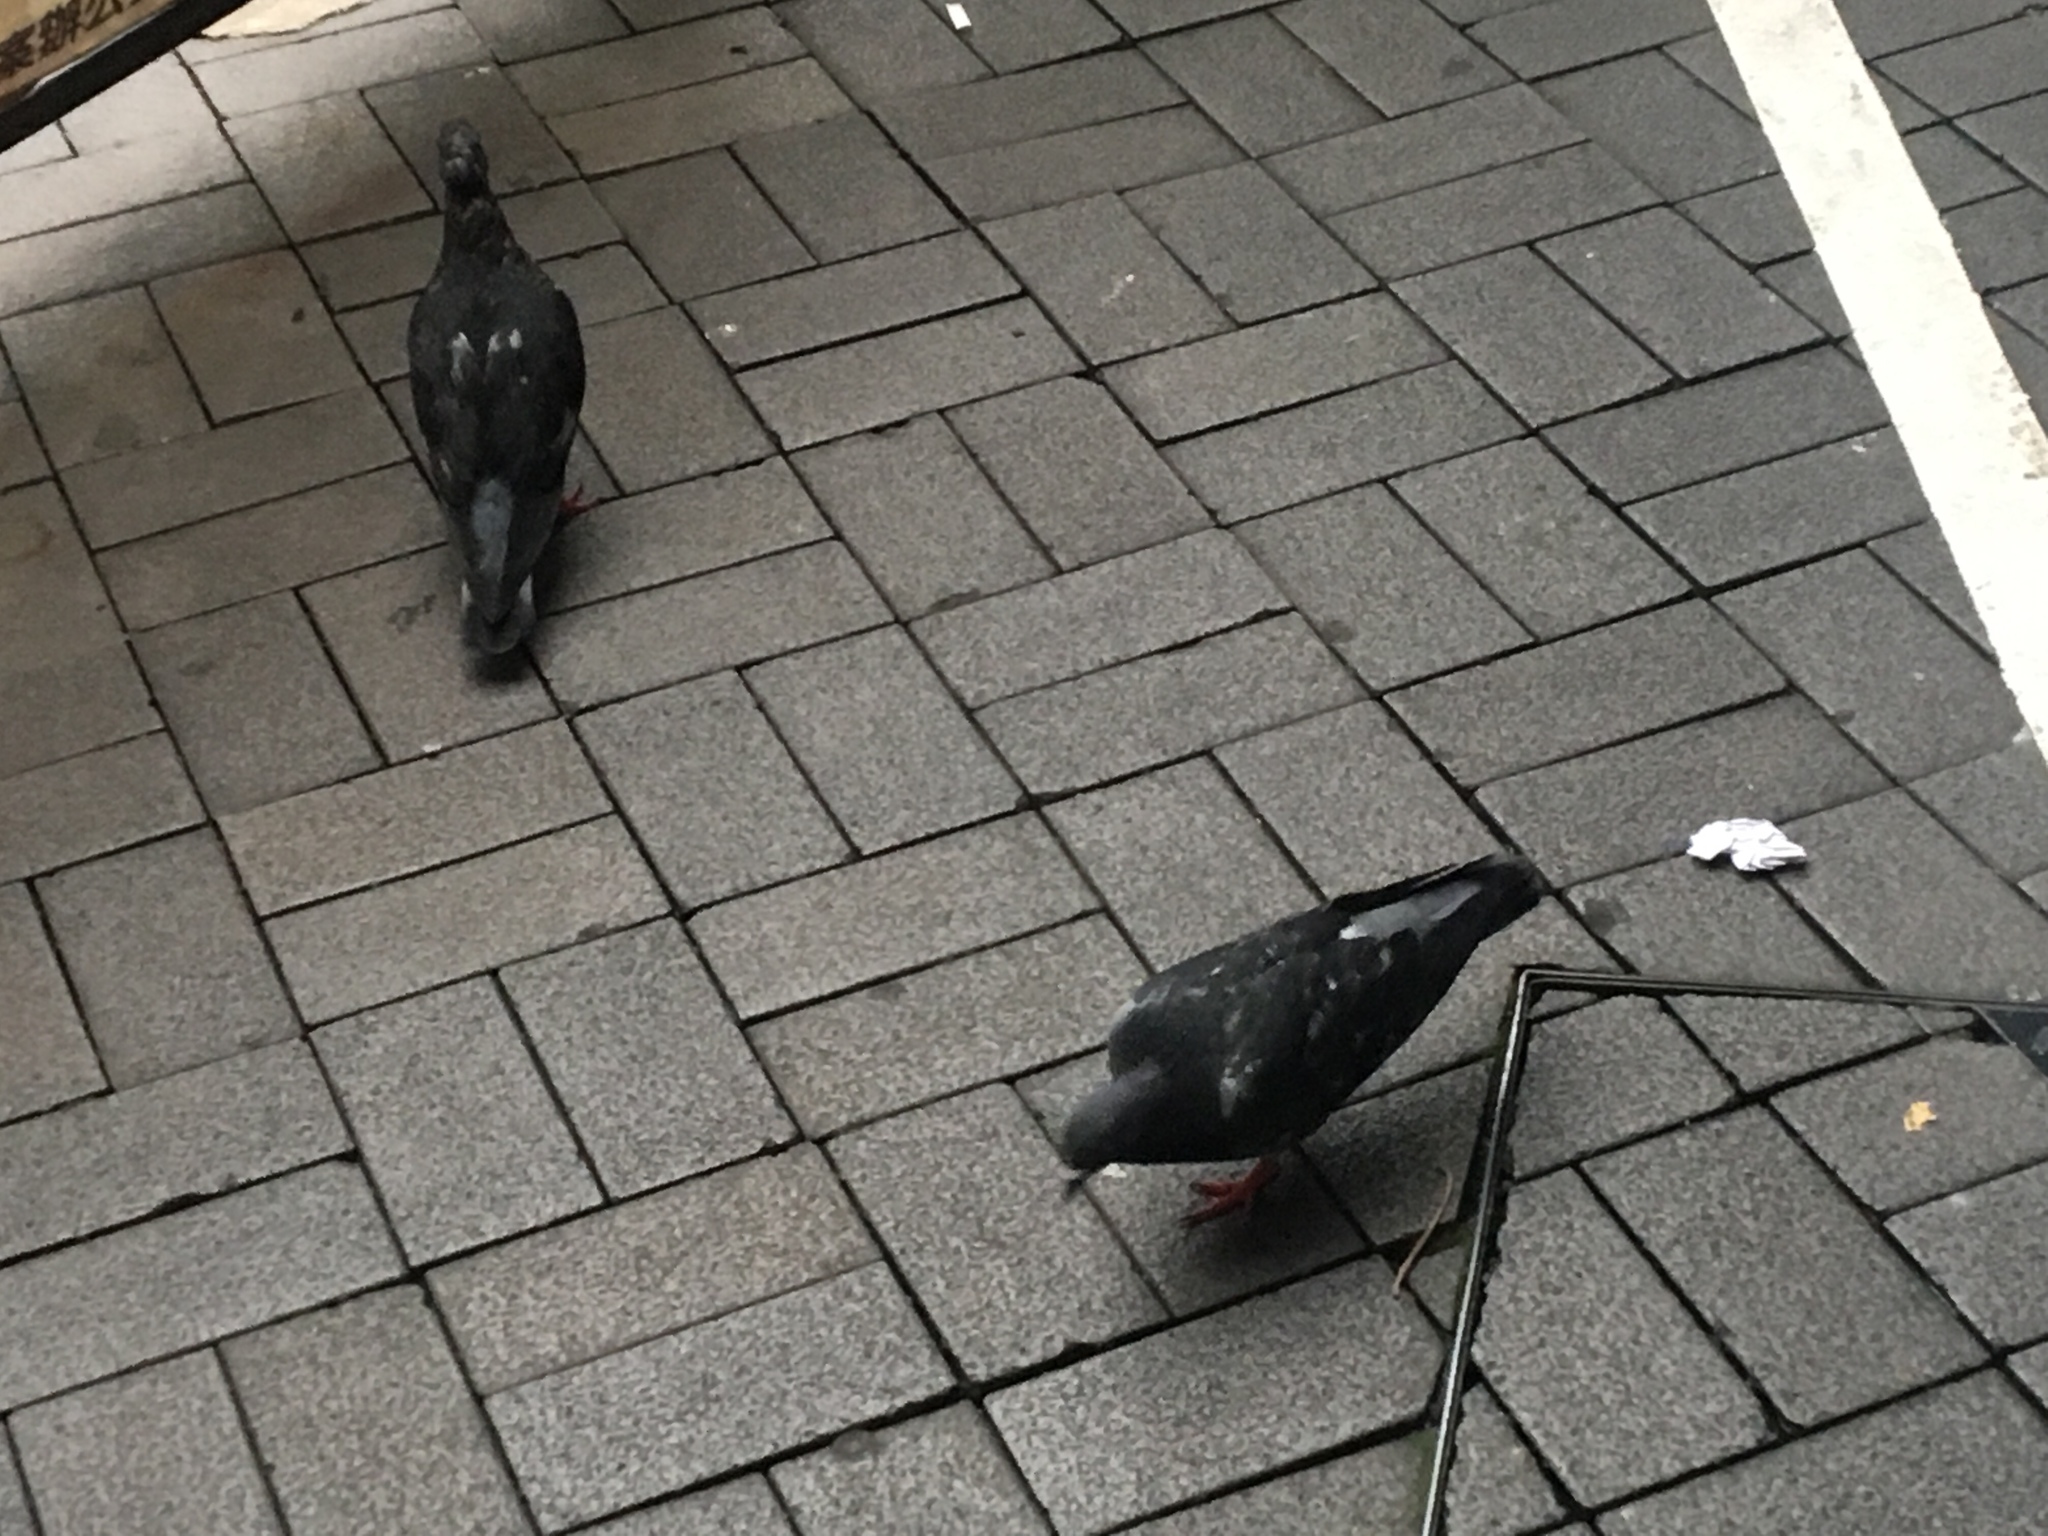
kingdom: Animalia
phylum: Chordata
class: Aves
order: Columbiformes
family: Columbidae
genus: Columba
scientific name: Columba livia
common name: Rock pigeon
